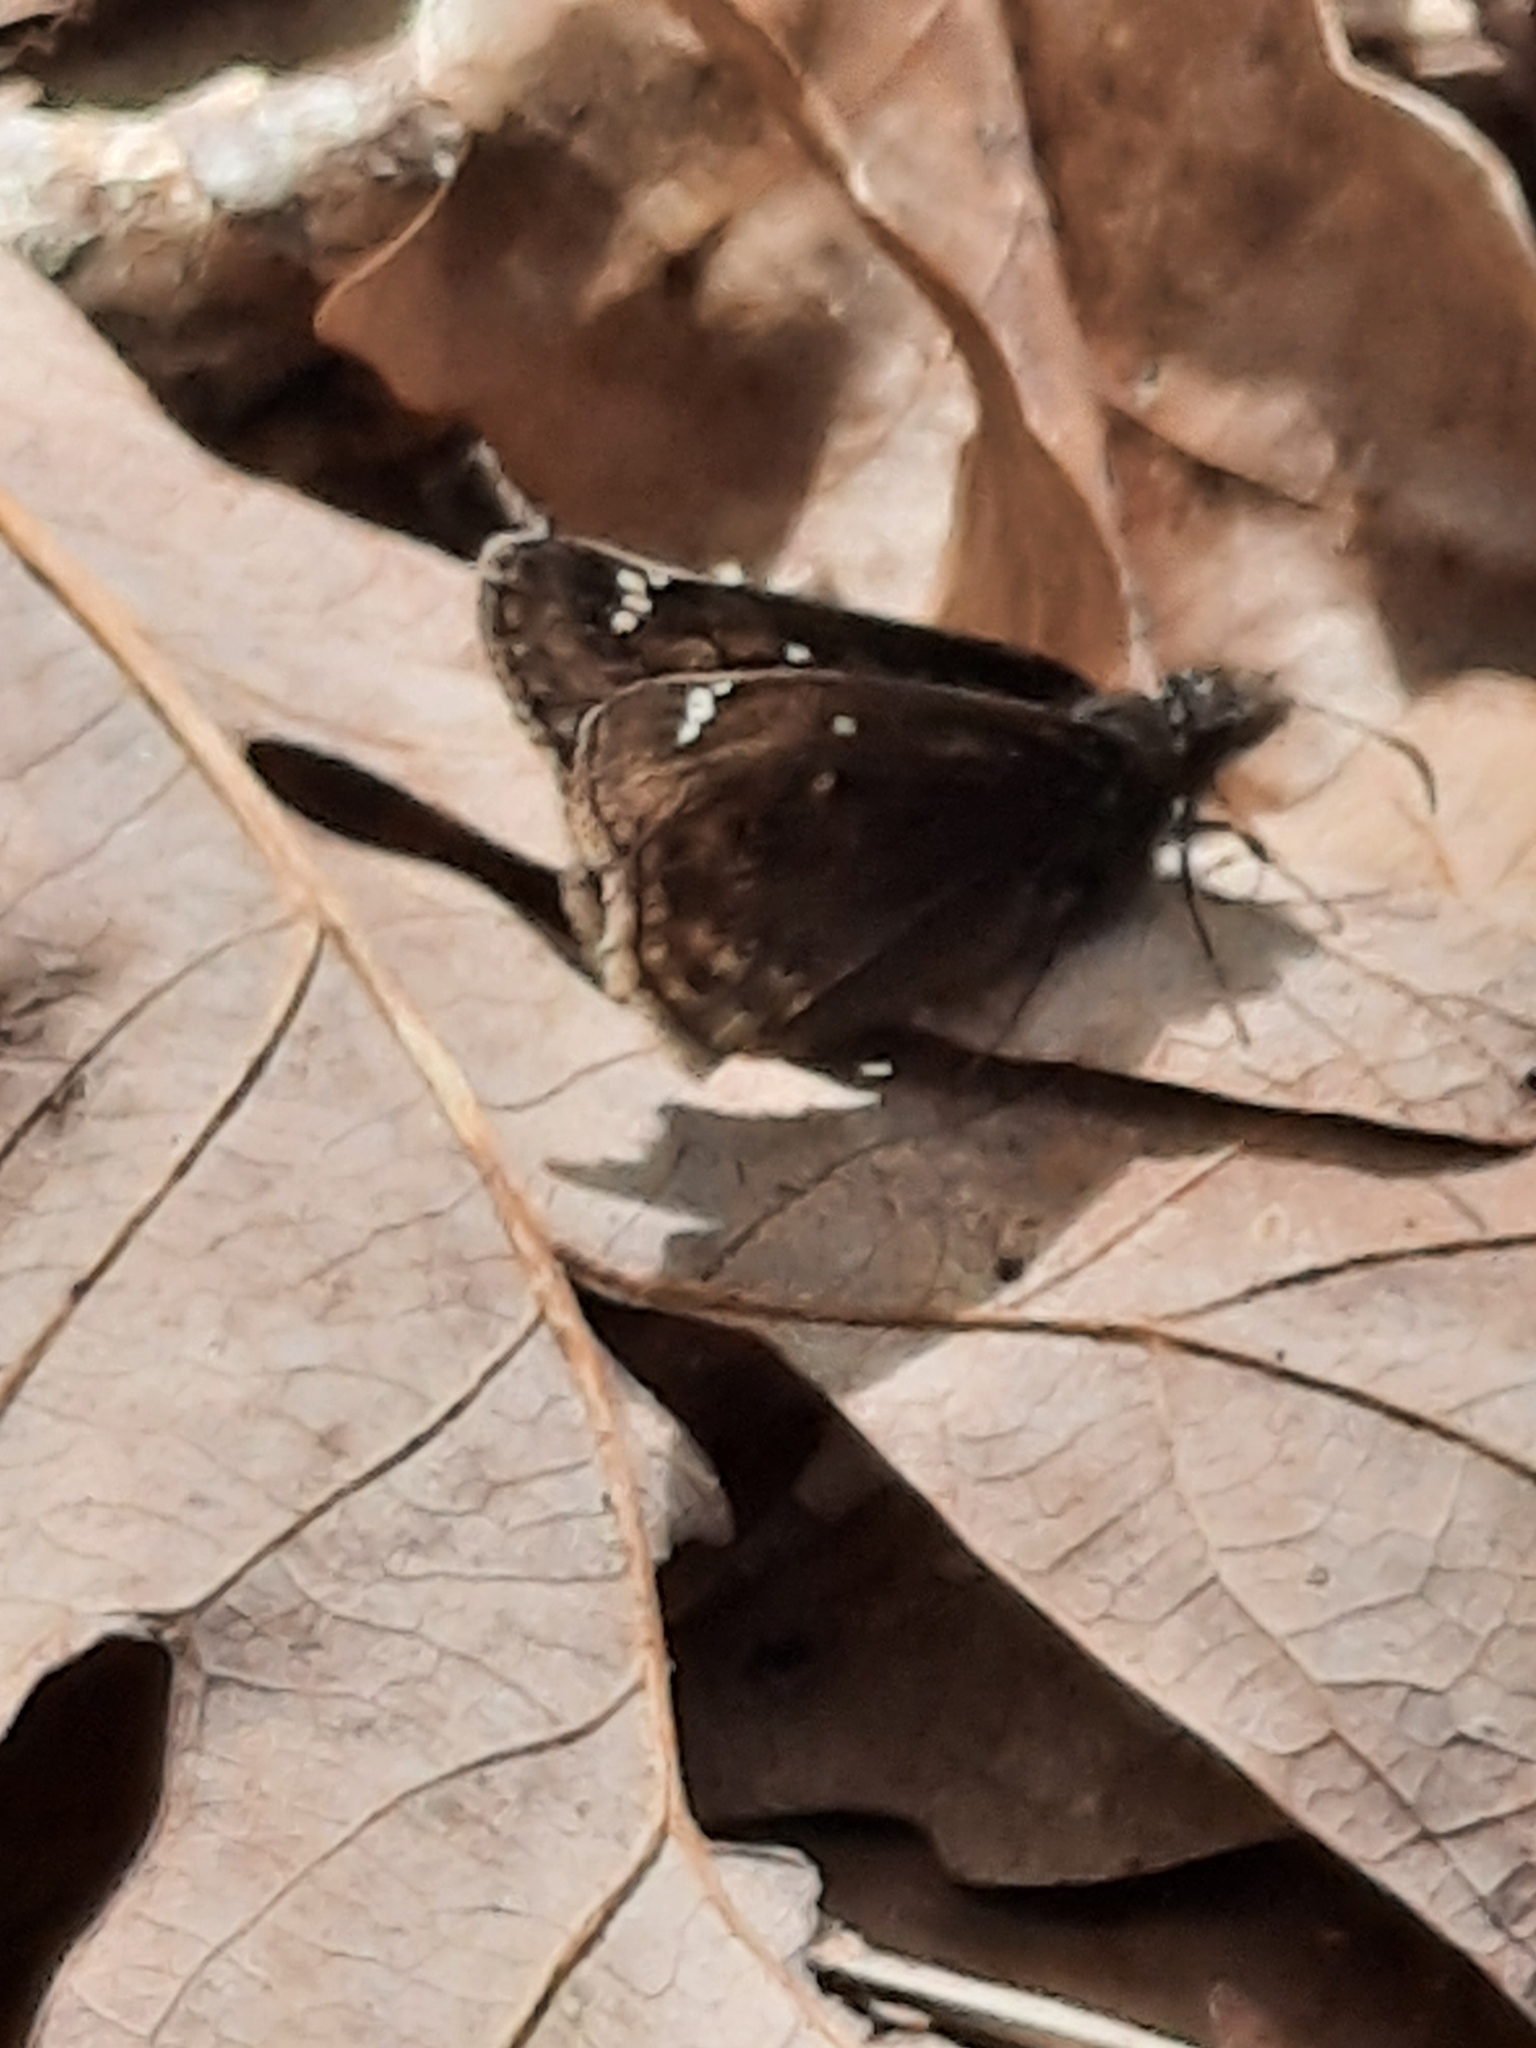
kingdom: Animalia
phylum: Arthropoda
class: Insecta
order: Lepidoptera
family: Hesperiidae
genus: Erynnis
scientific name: Erynnis juvenalis
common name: Juvenal's duskywing
